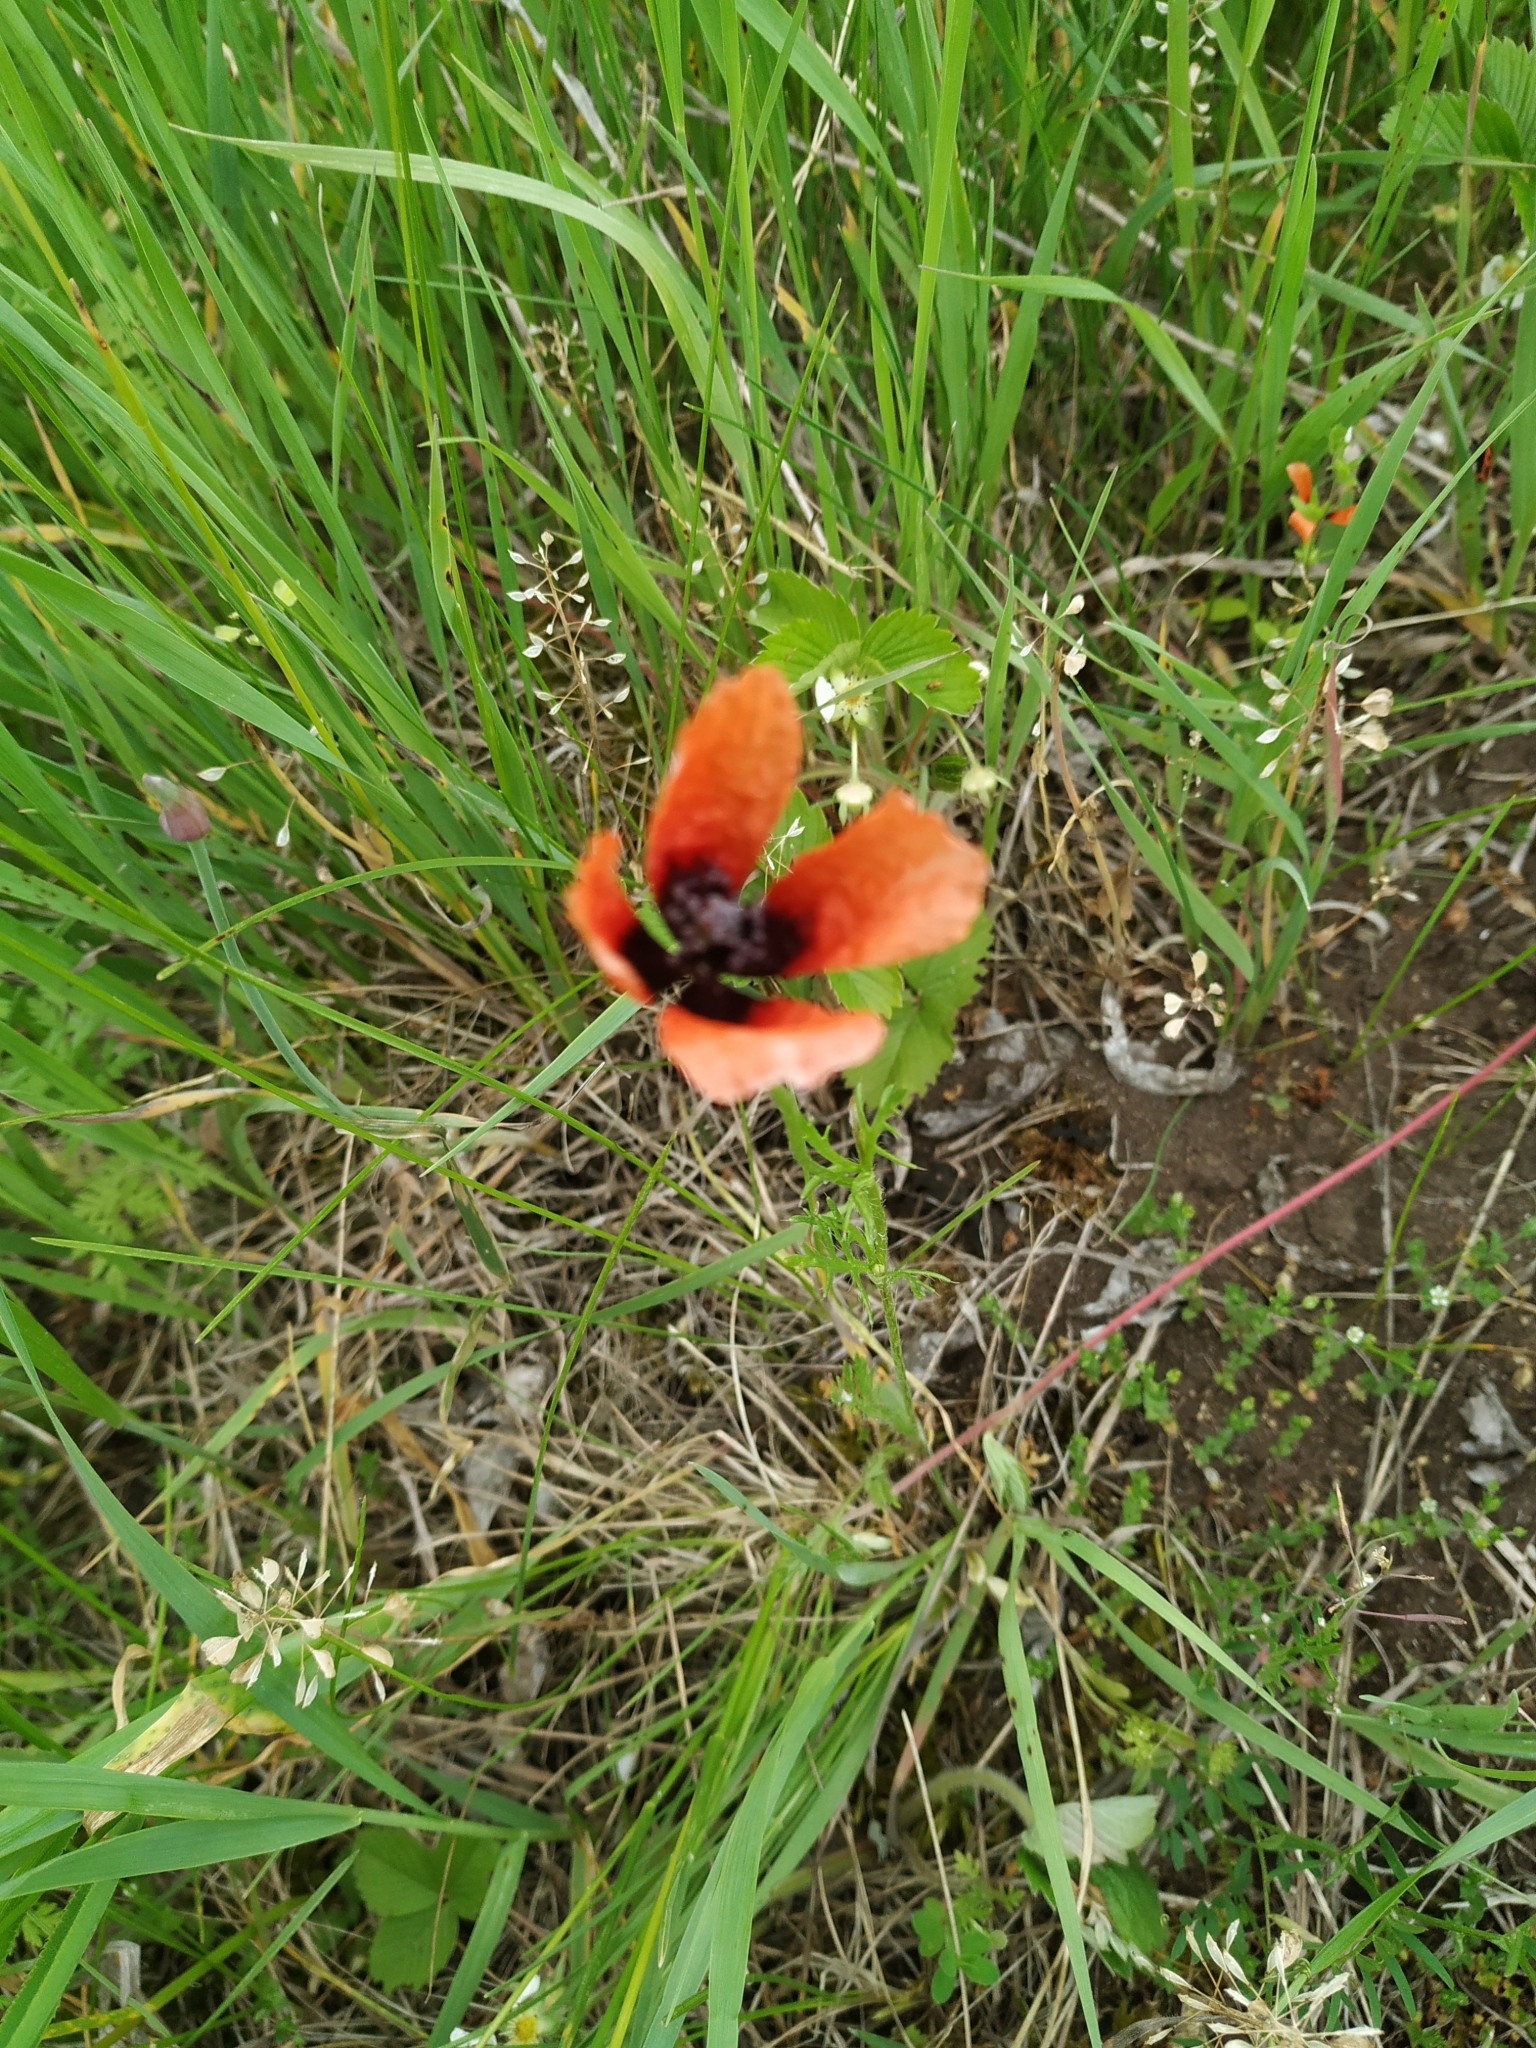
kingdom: Plantae
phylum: Tracheophyta
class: Magnoliopsida
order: Ranunculales
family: Papaveraceae
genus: Roemeria
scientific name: Roemeria argemone
